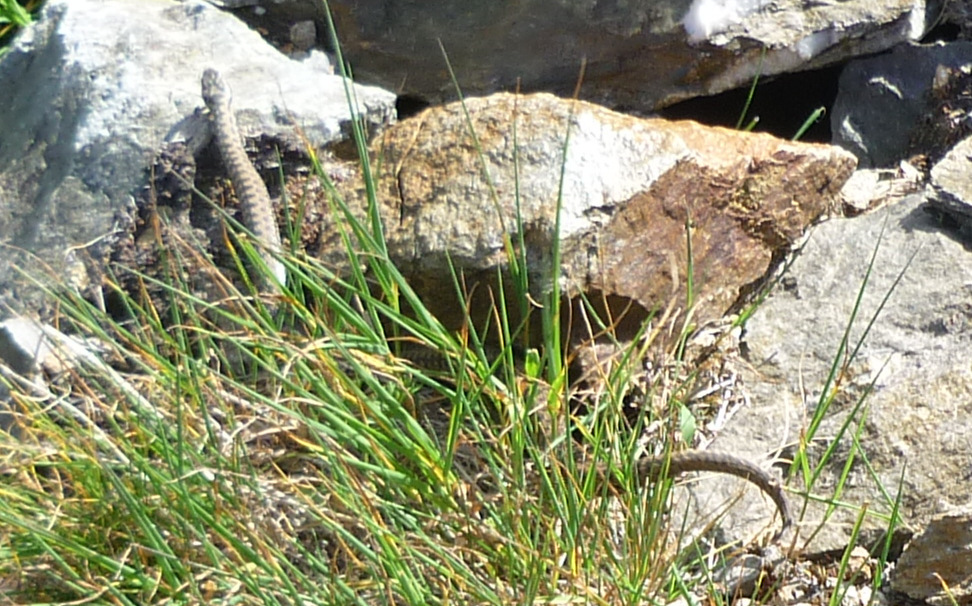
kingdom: Animalia
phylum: Chordata
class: Squamata
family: Viperidae
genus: Vipera
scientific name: Vipera berus
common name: Adder
